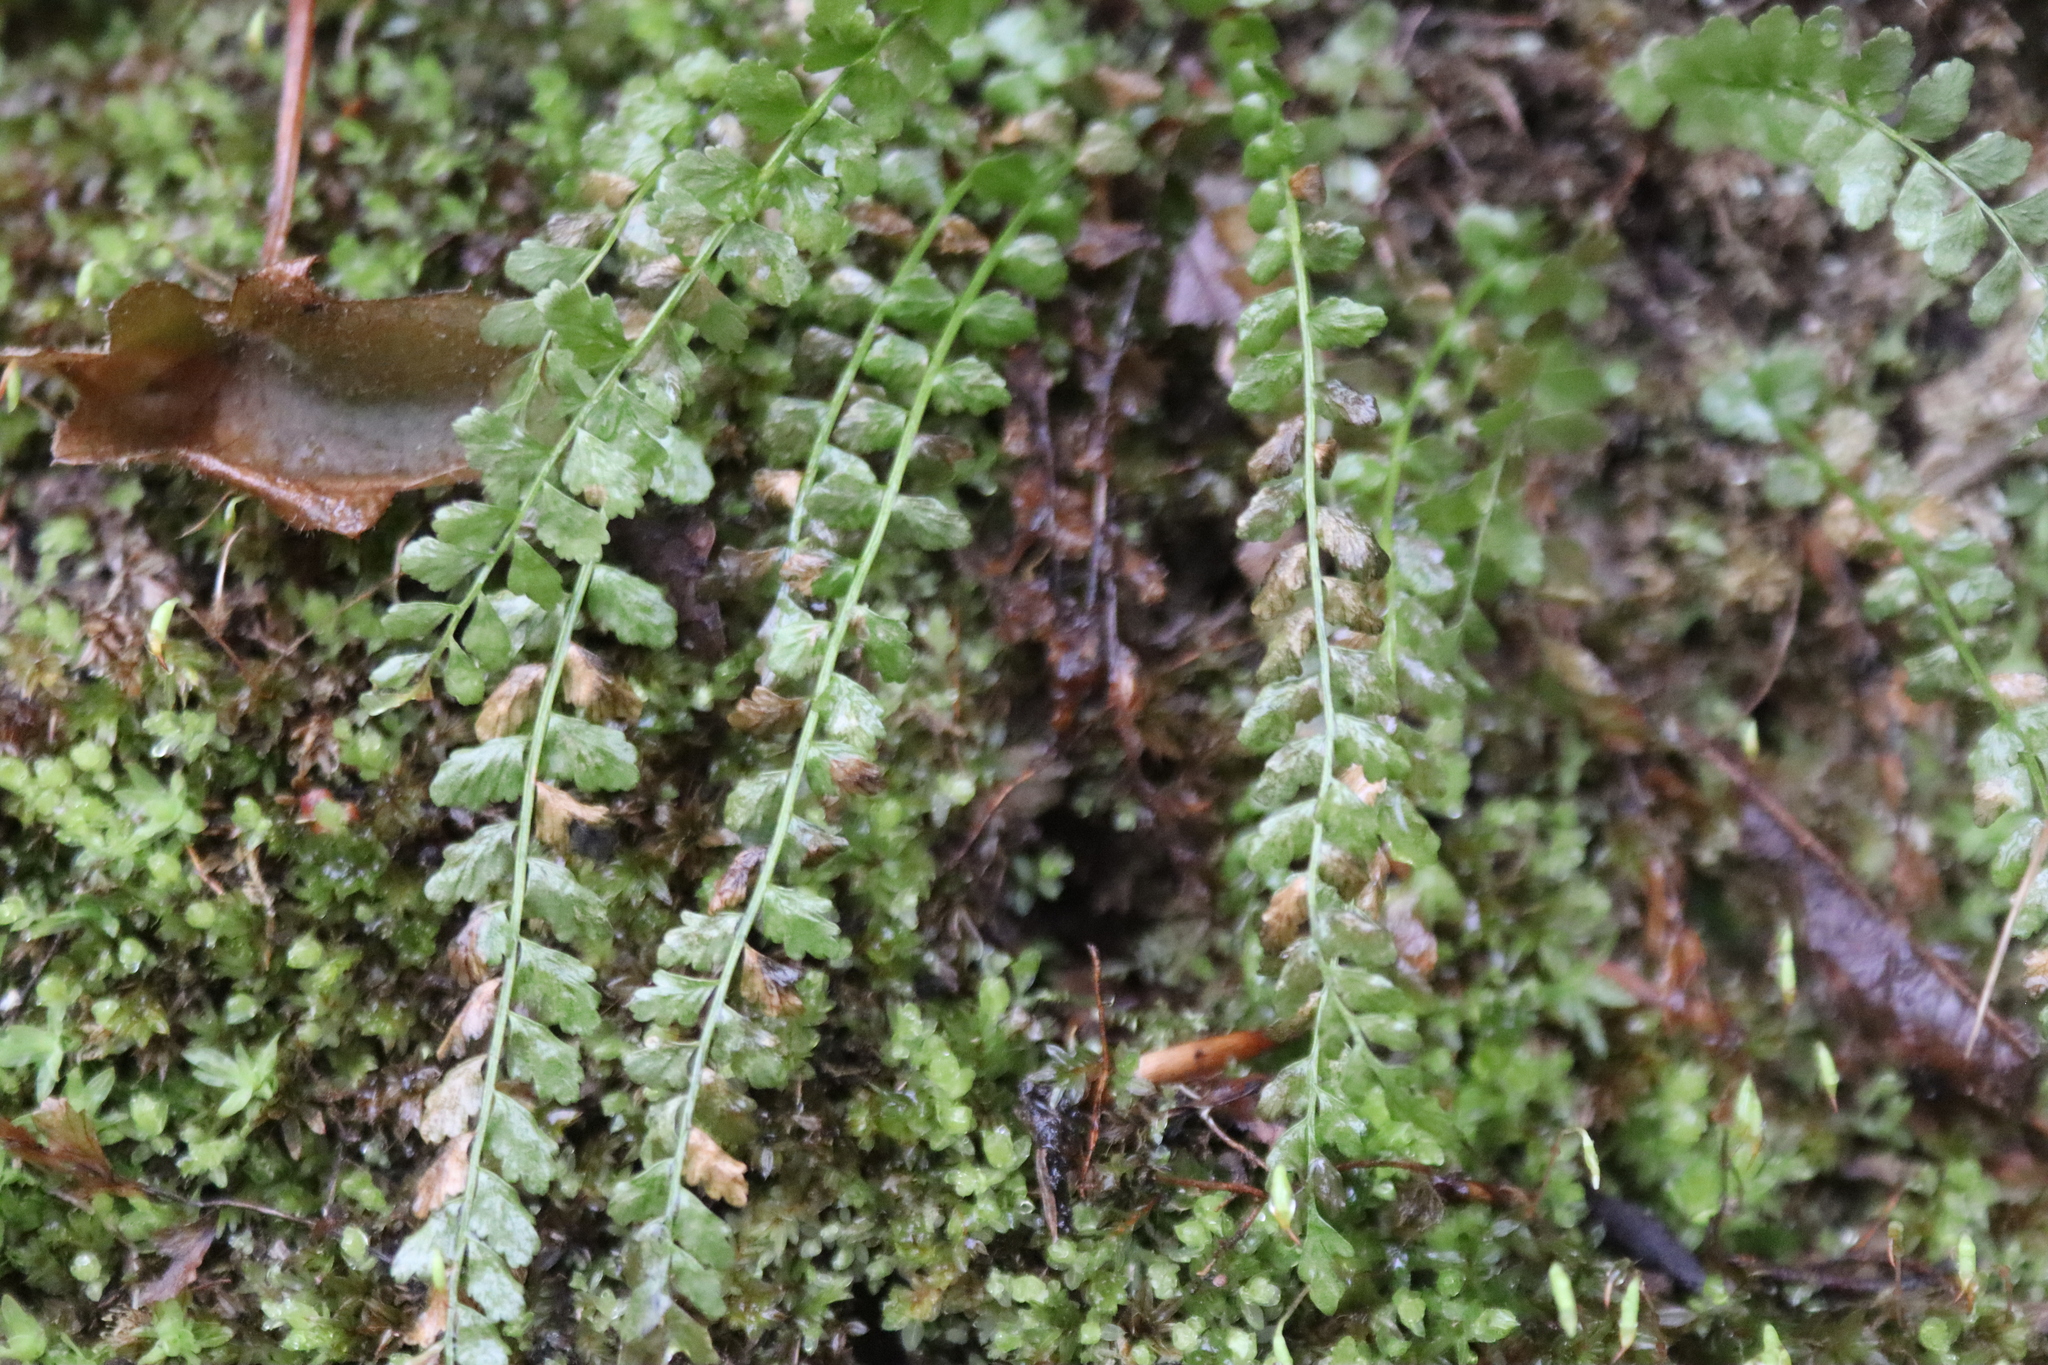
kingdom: Plantae
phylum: Tracheophyta
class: Polypodiopsida
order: Polypodiales
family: Aspleniaceae
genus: Asplenium
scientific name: Asplenium viride
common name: Green spleenwort
